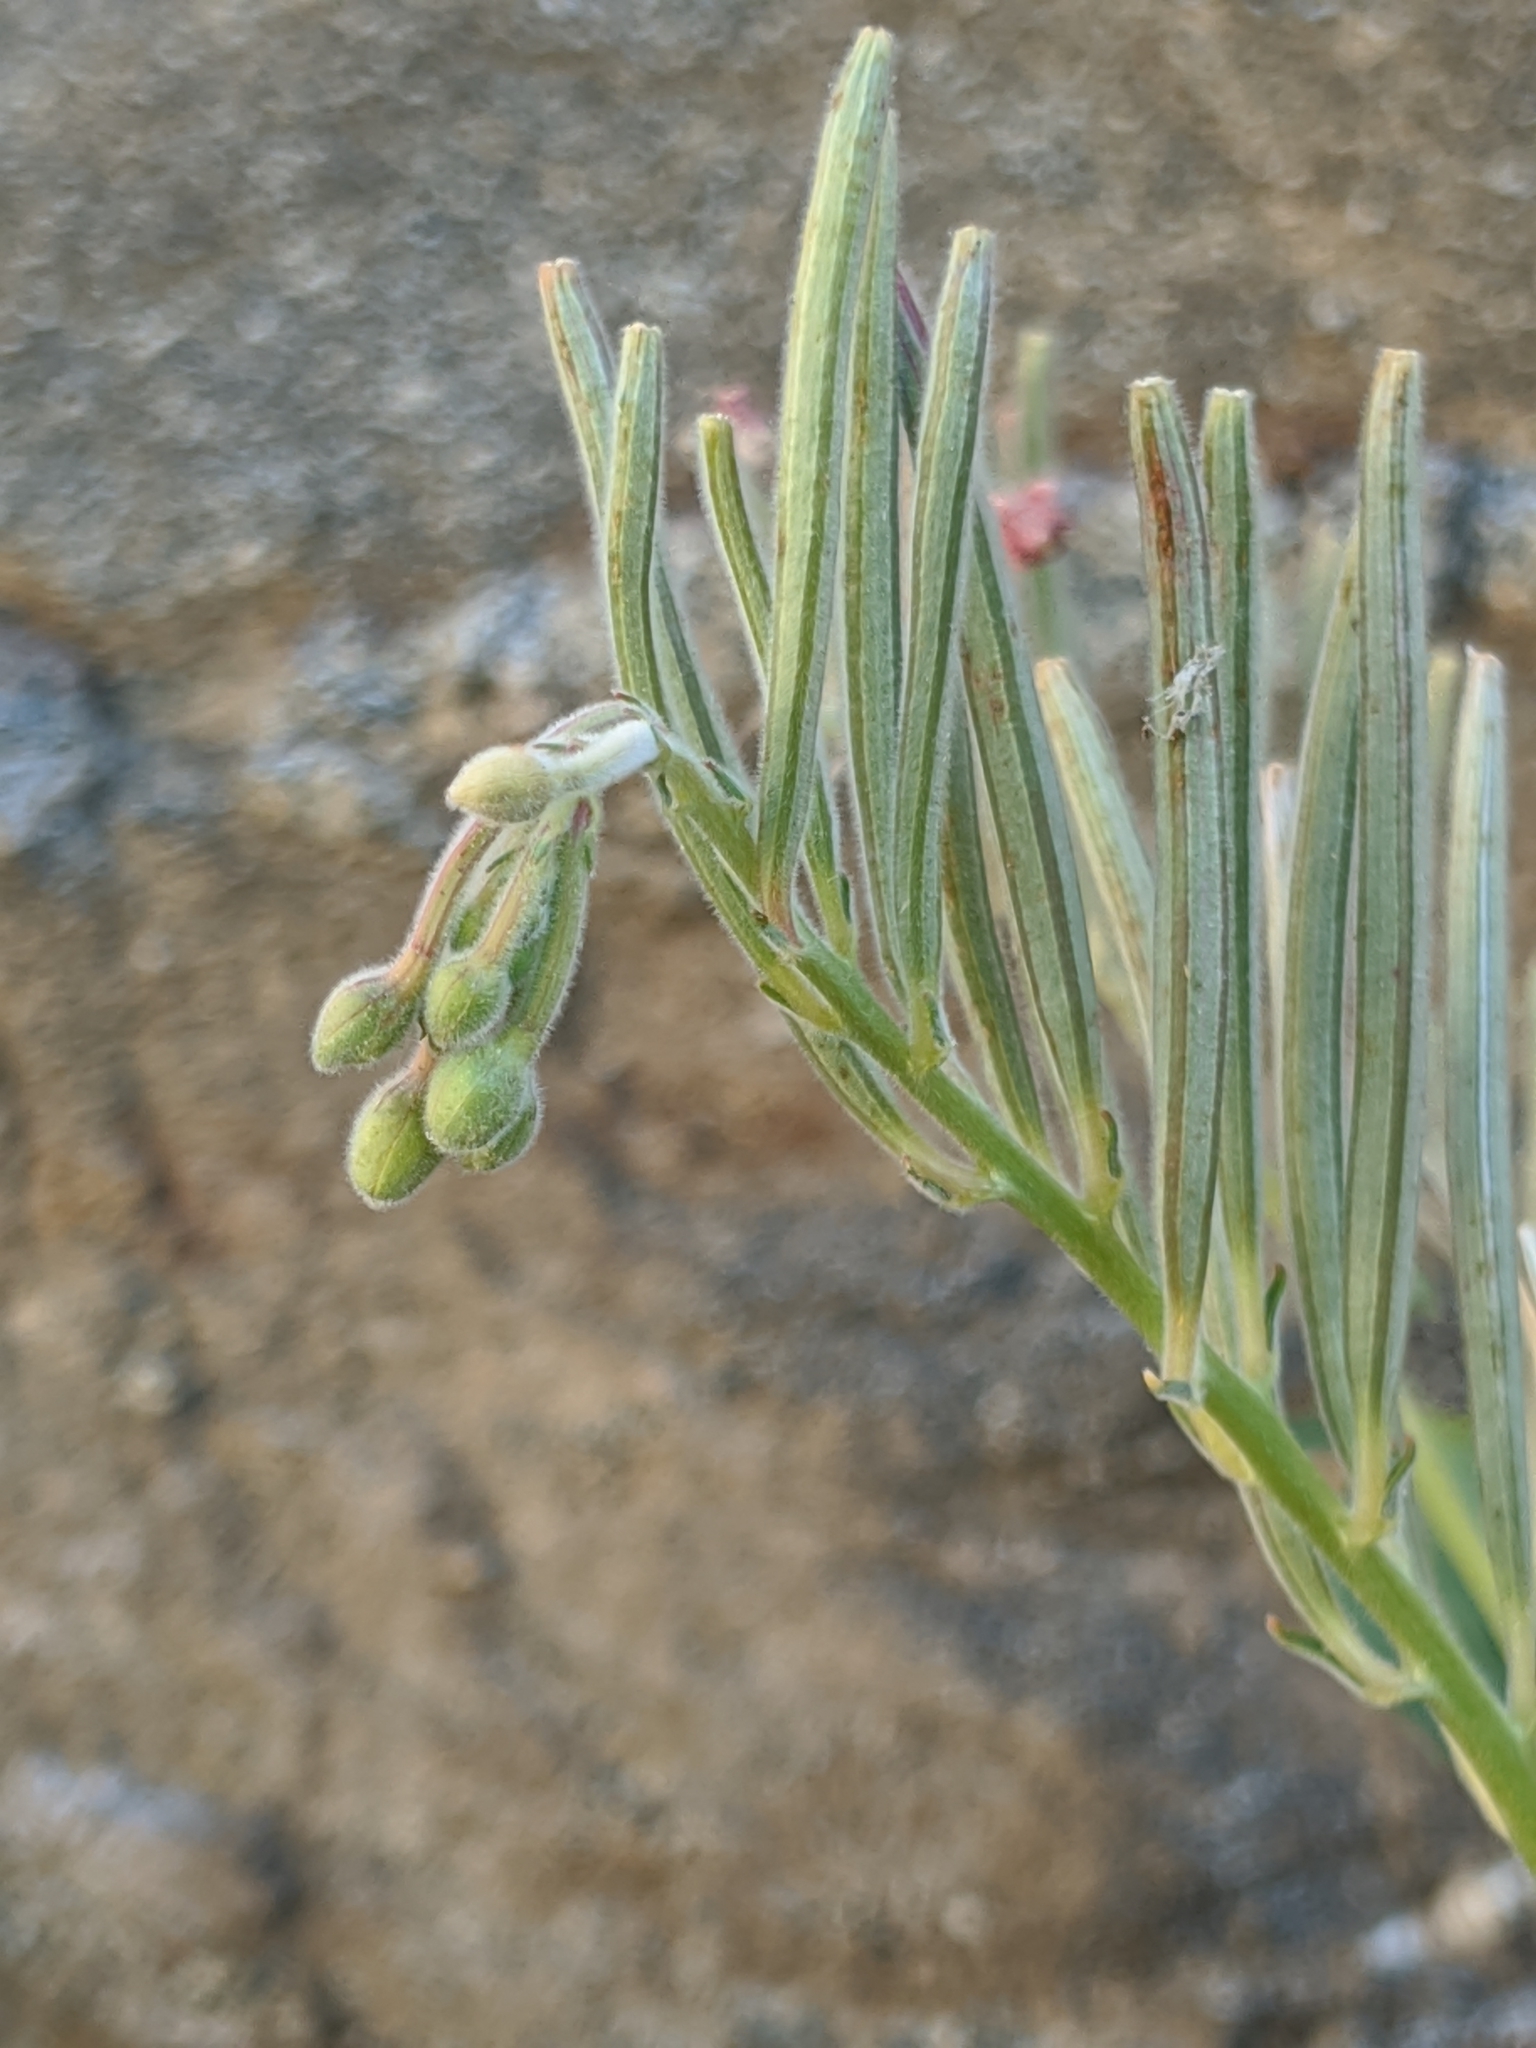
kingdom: Plantae
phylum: Tracheophyta
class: Magnoliopsida
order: Myrtales
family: Onagraceae
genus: Chylismia
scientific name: Chylismia cardiophylla
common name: Heartleaf suncup
